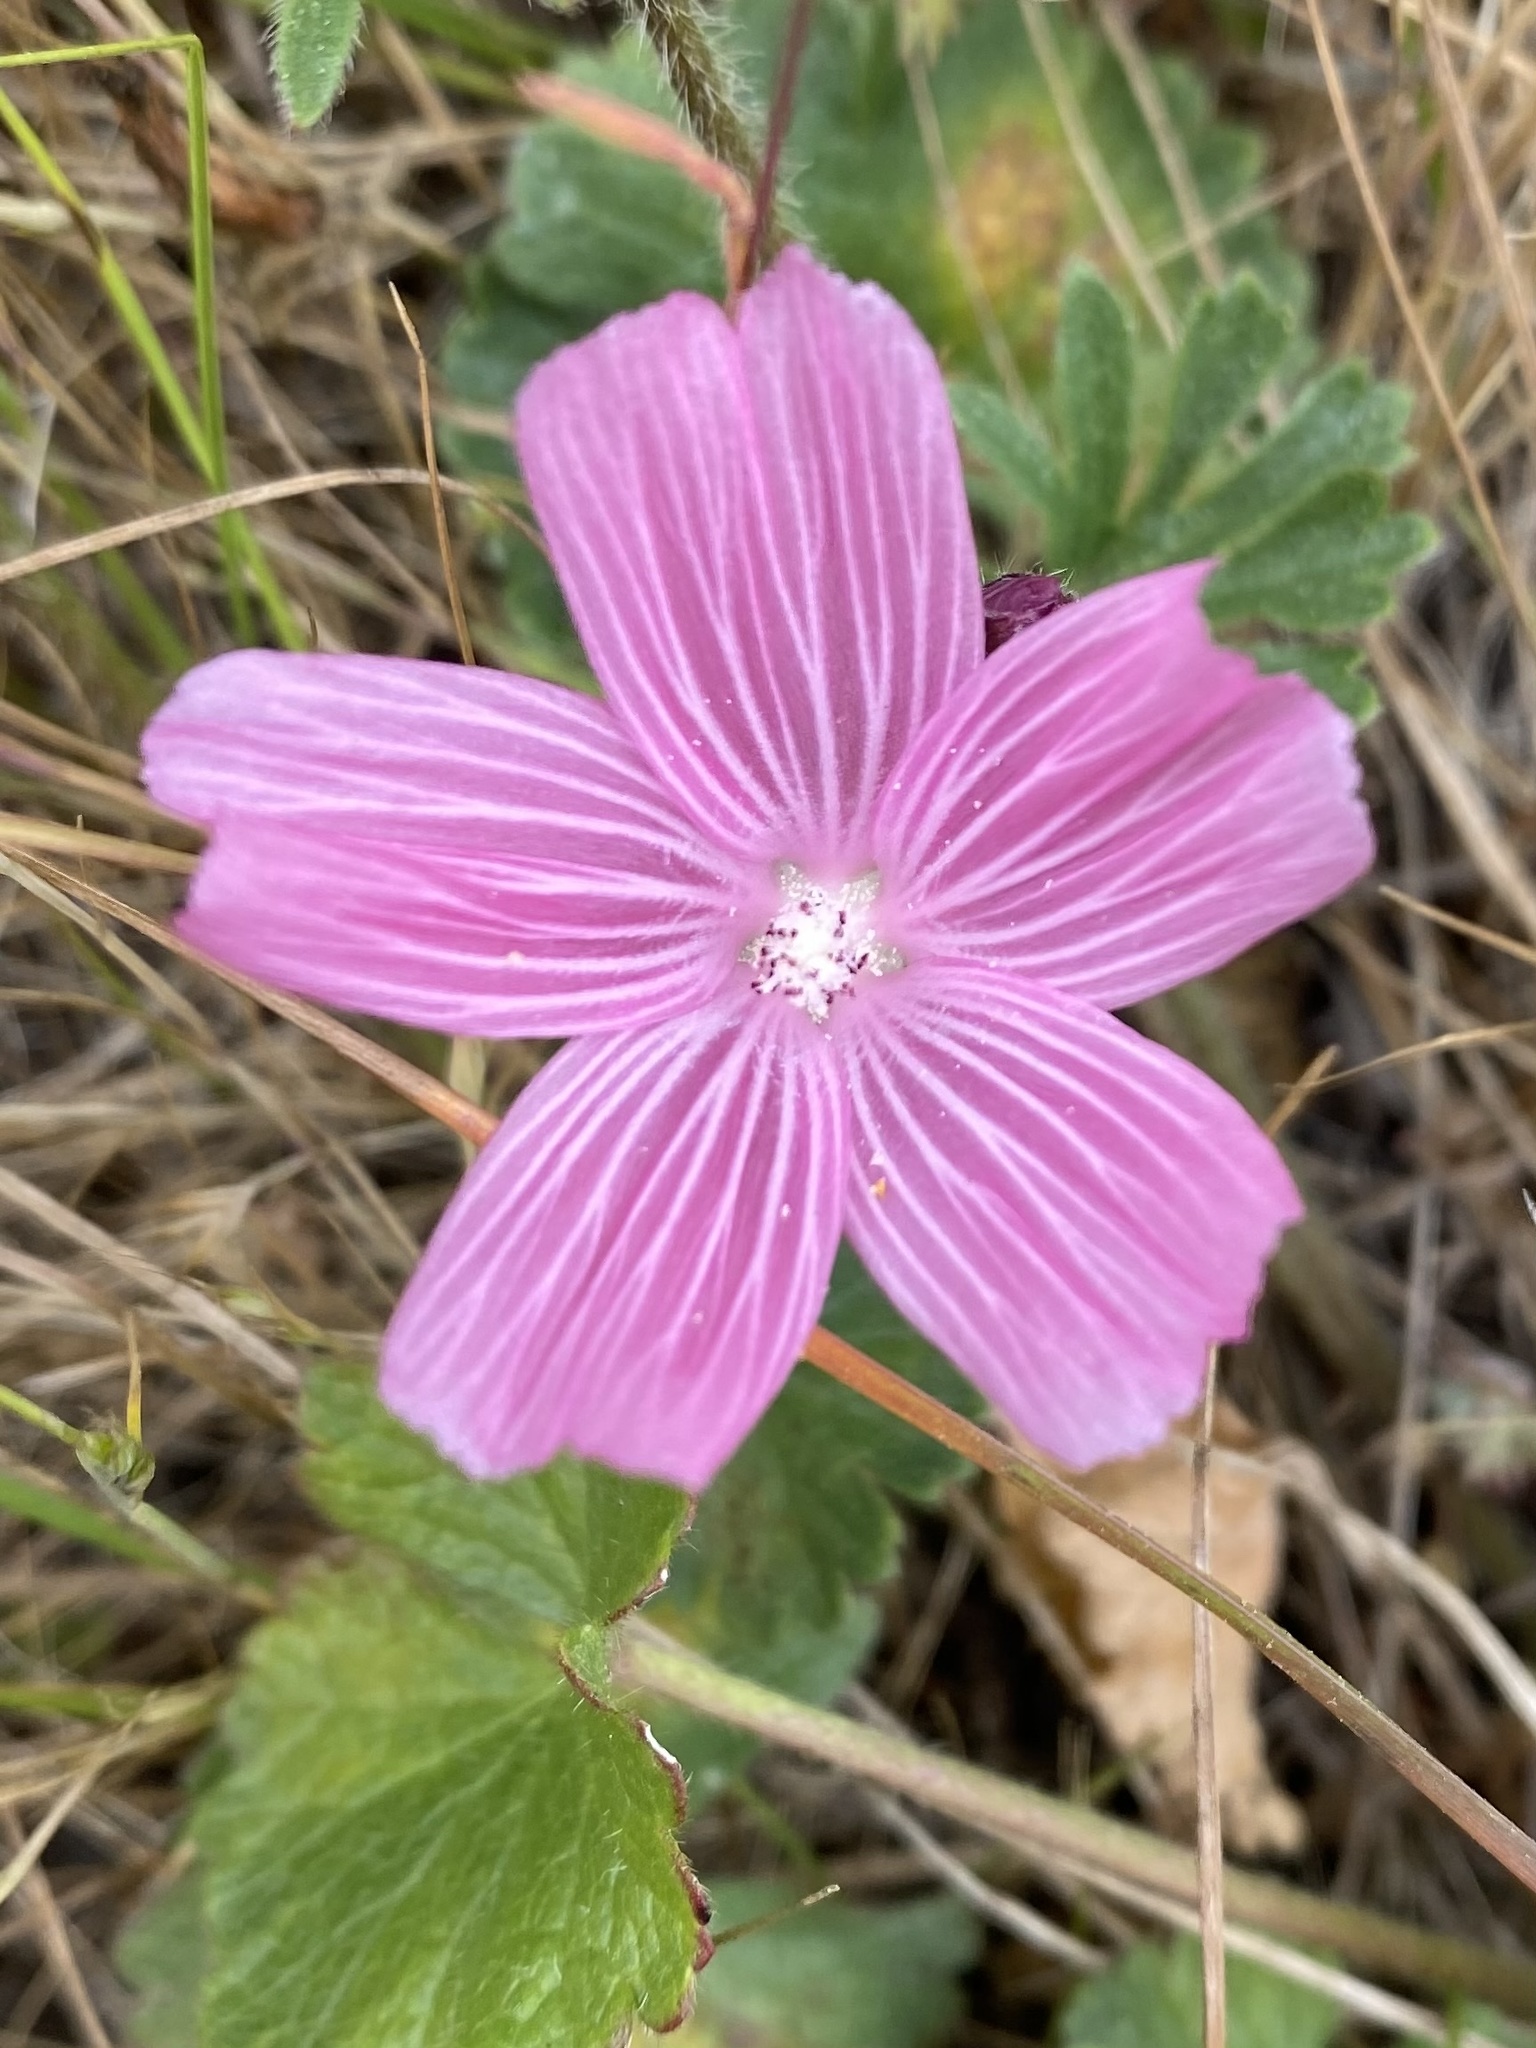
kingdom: Plantae
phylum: Tracheophyta
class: Magnoliopsida
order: Malvales
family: Malvaceae
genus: Sidalcea
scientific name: Sidalcea malviflora
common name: Greek mallow
